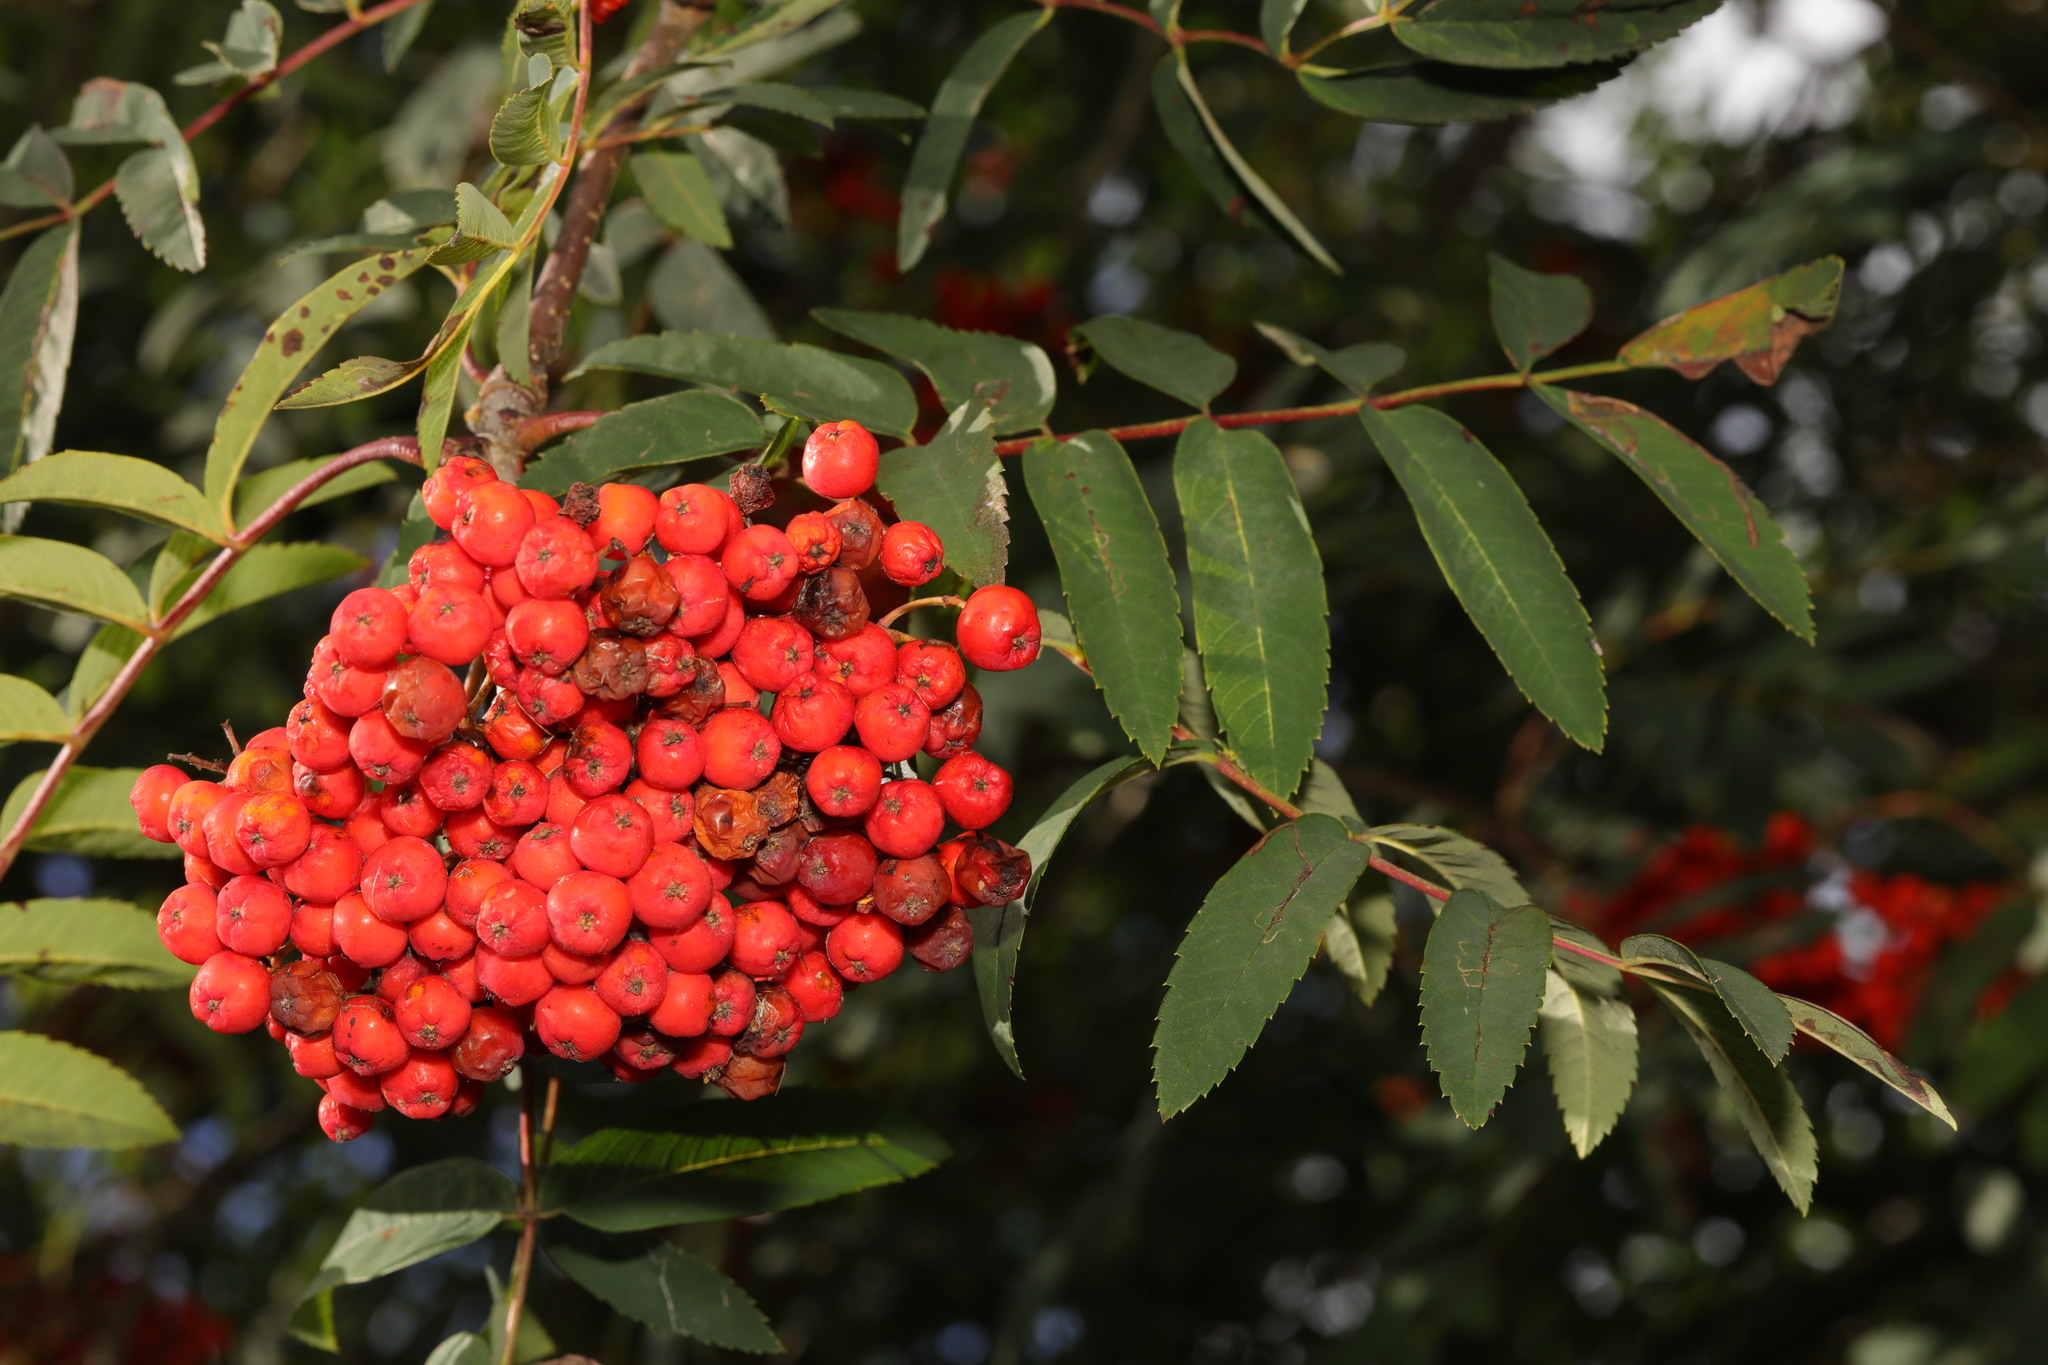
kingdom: Plantae
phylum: Tracheophyta
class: Magnoliopsida
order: Rosales
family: Rosaceae
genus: Sorbus
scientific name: Sorbus aucuparia
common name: Rowan
